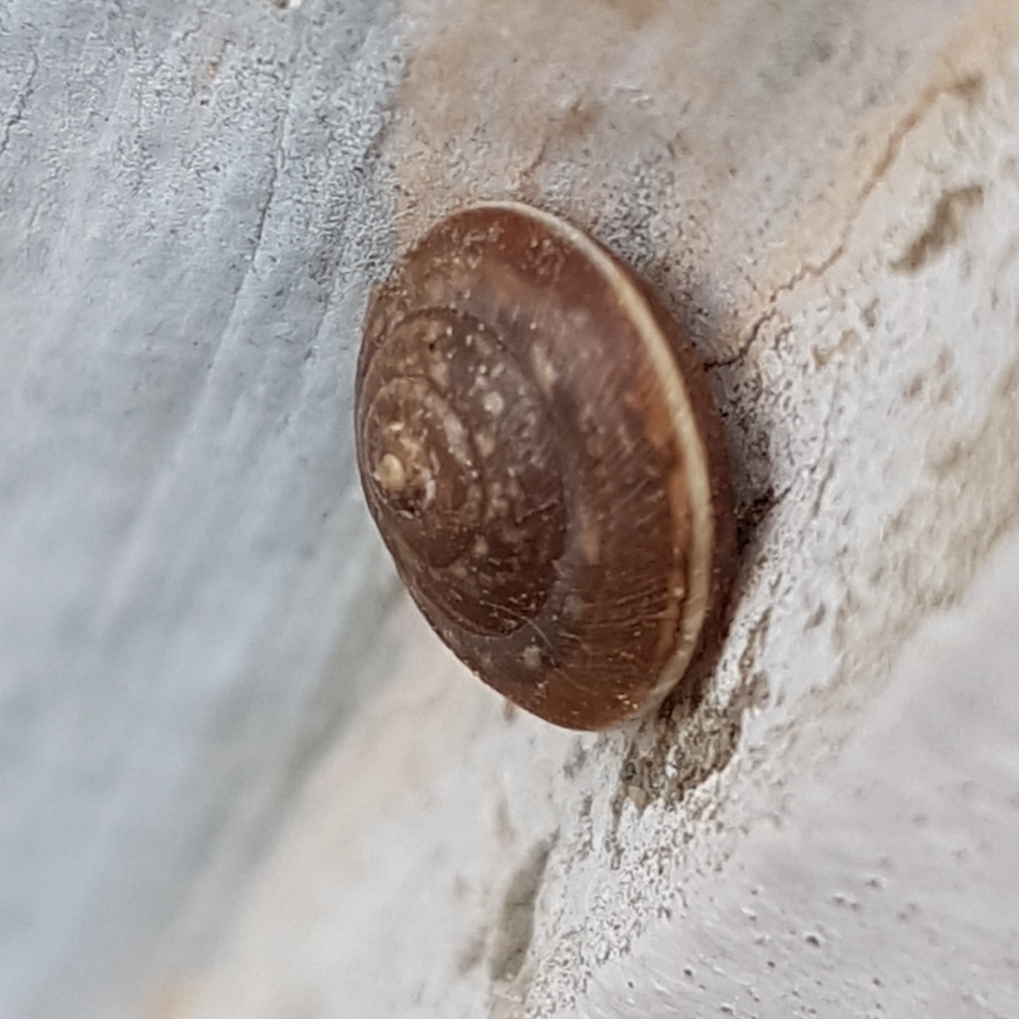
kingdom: Animalia
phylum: Mollusca
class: Gastropoda
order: Stylommatophora
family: Hygromiidae
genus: Hygromia
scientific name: Hygromia cinctella
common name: Girdled snail
